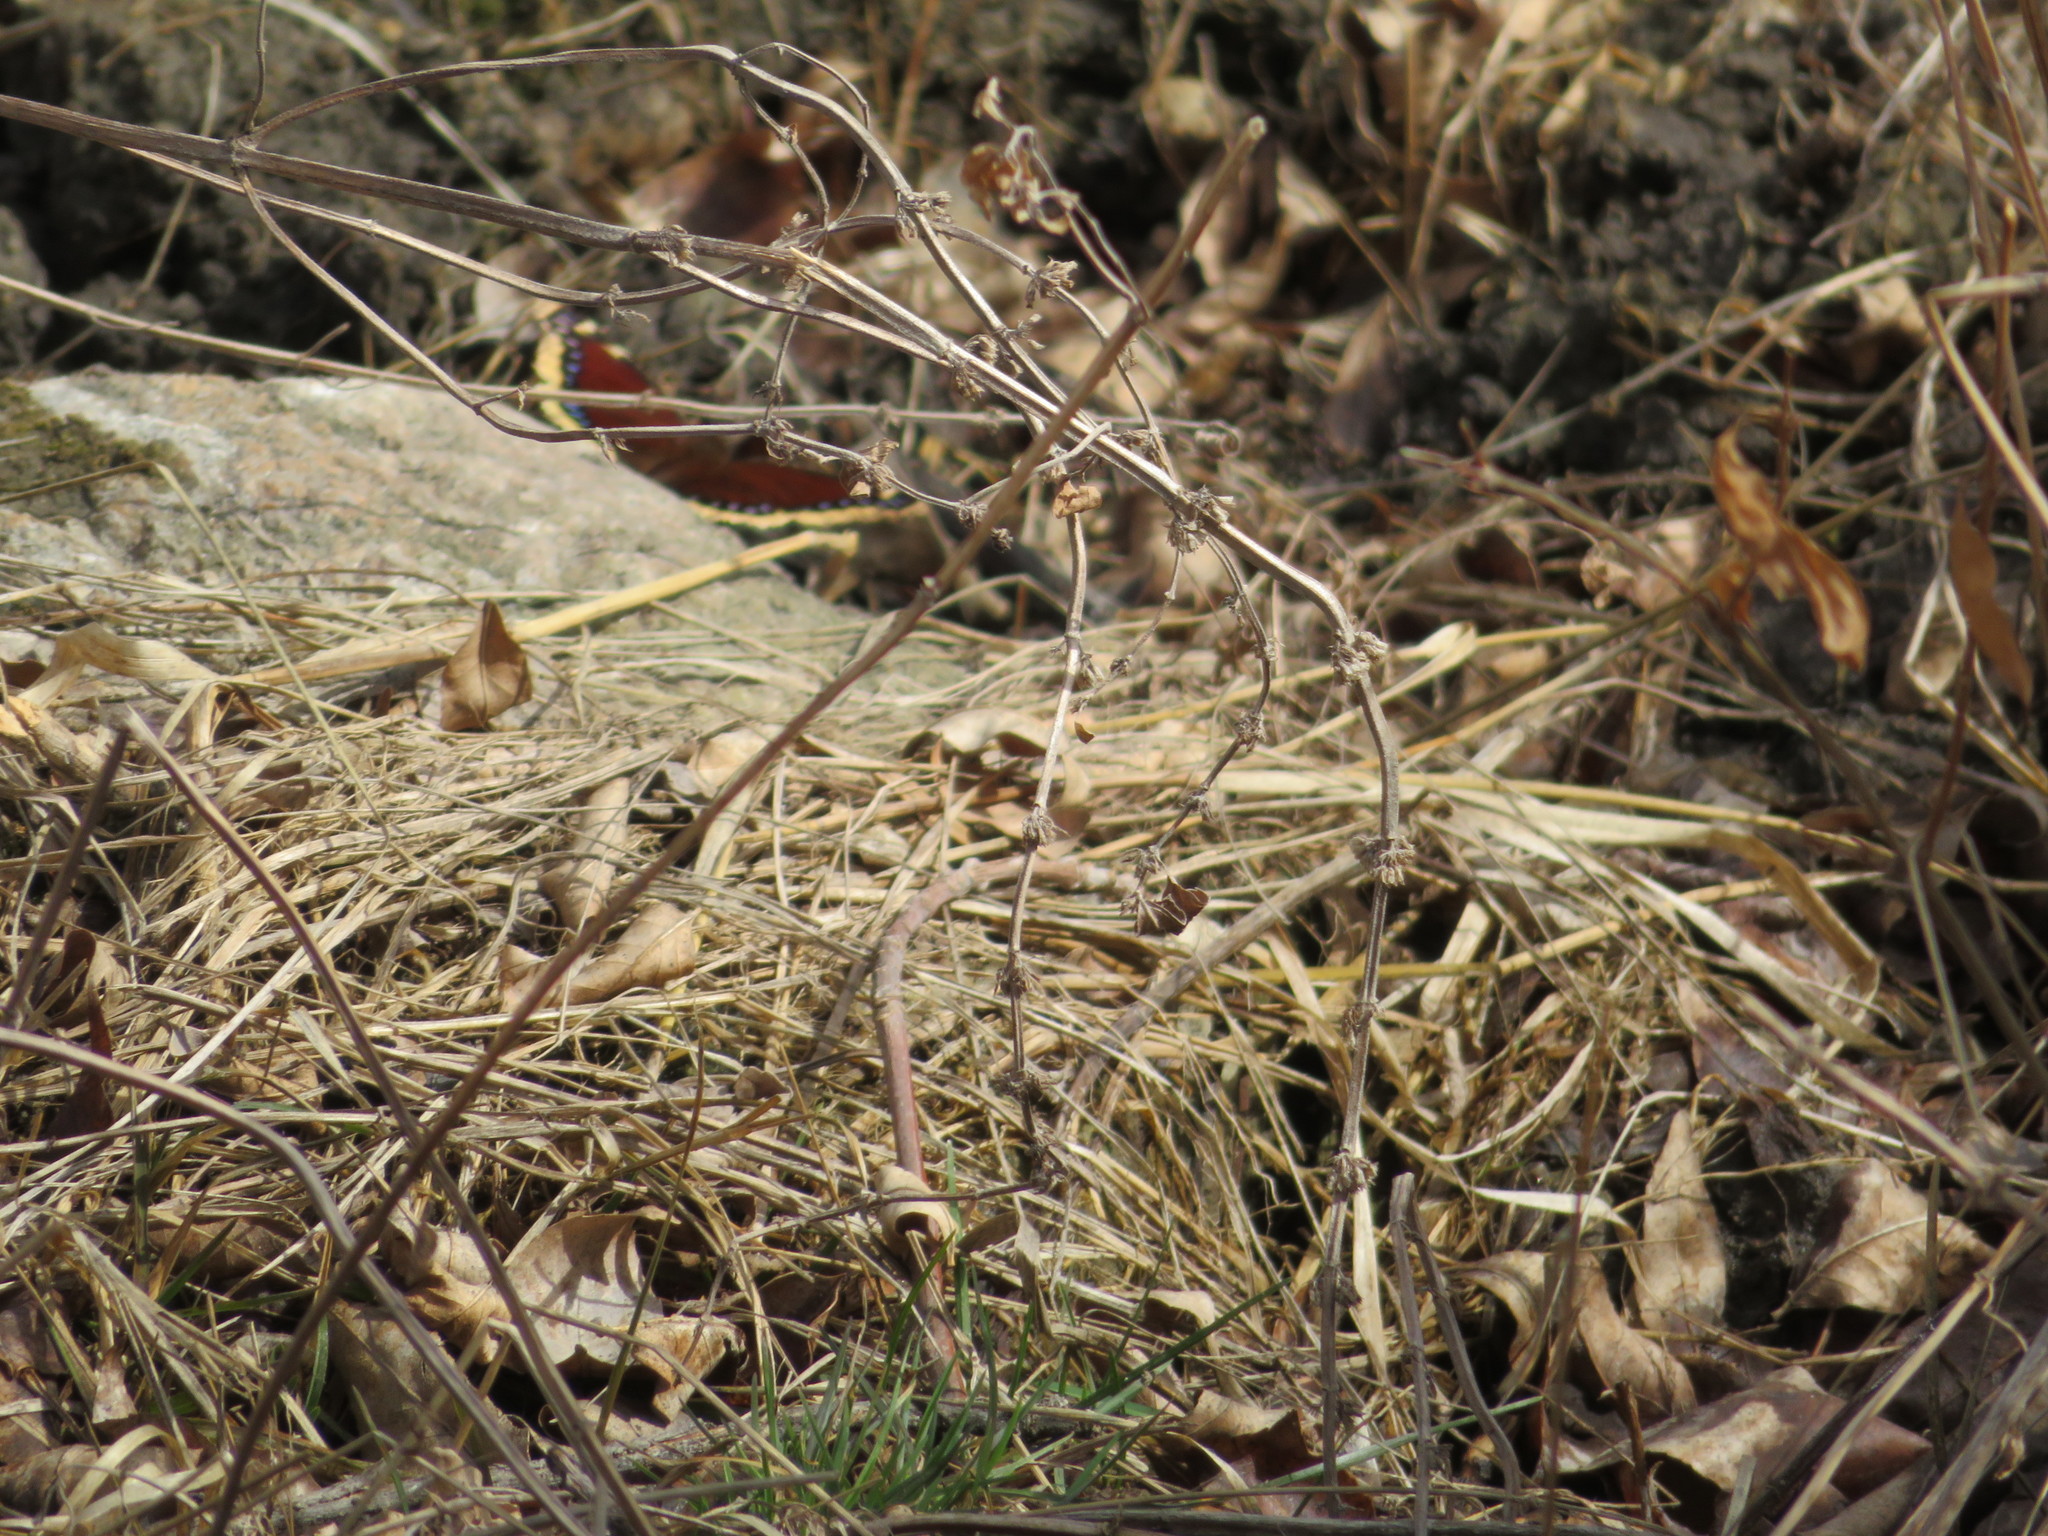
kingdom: Animalia
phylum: Arthropoda
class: Insecta
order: Lepidoptera
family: Nymphalidae
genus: Nymphalis
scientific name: Nymphalis antiopa
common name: Camberwell beauty
